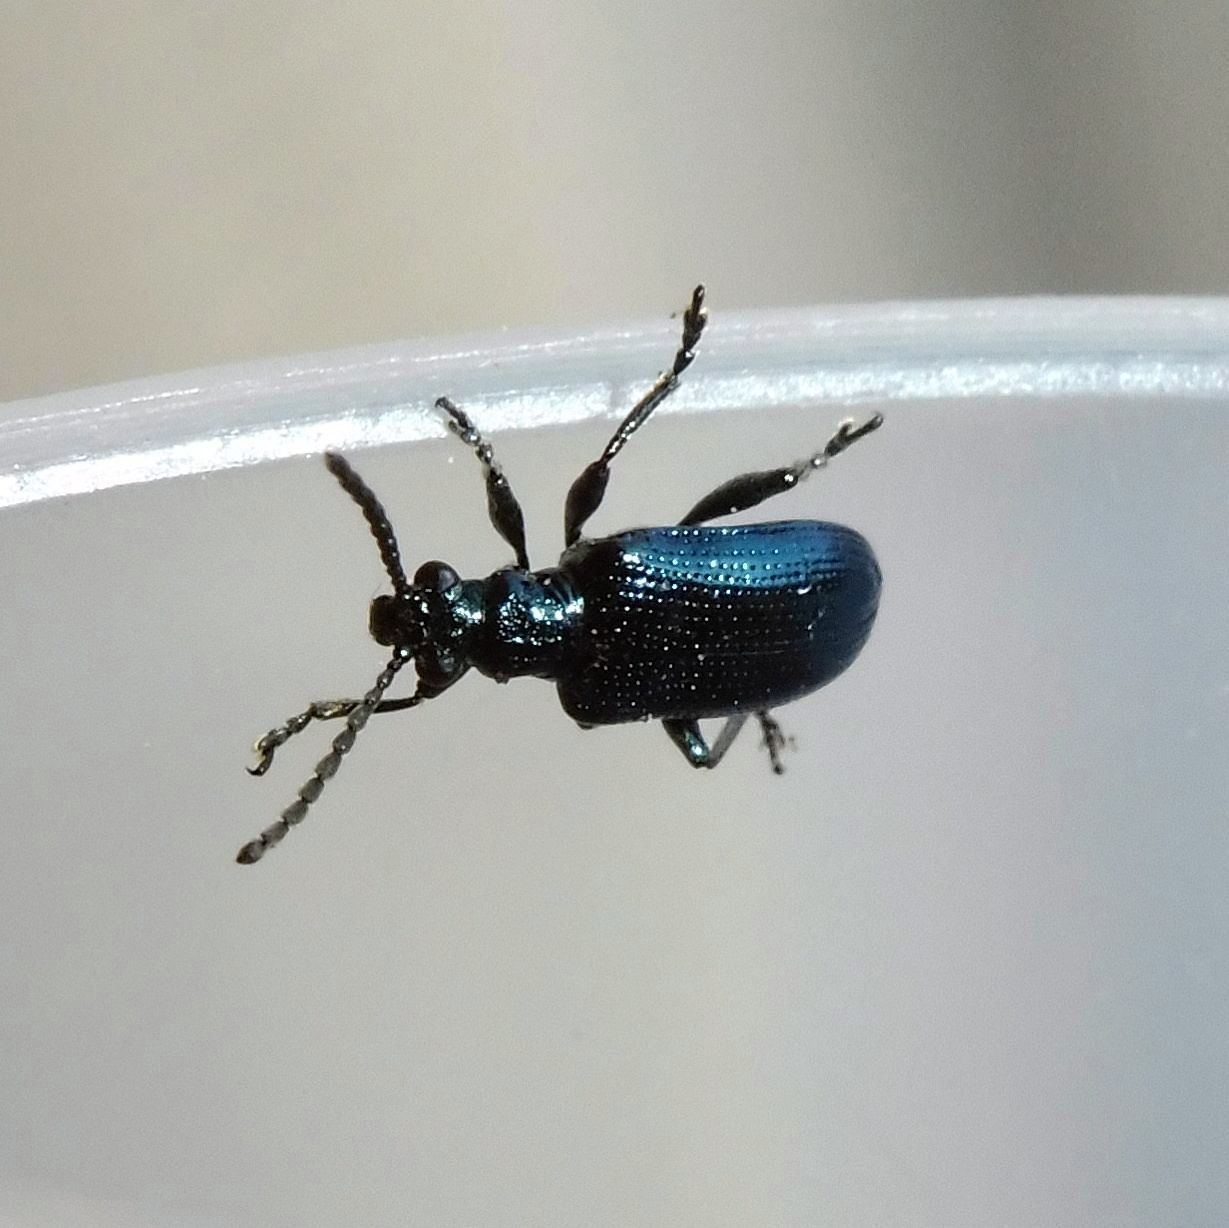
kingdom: Animalia
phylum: Arthropoda
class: Insecta
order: Coleoptera
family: Chrysomelidae
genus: Lema
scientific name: Lema cyanella
